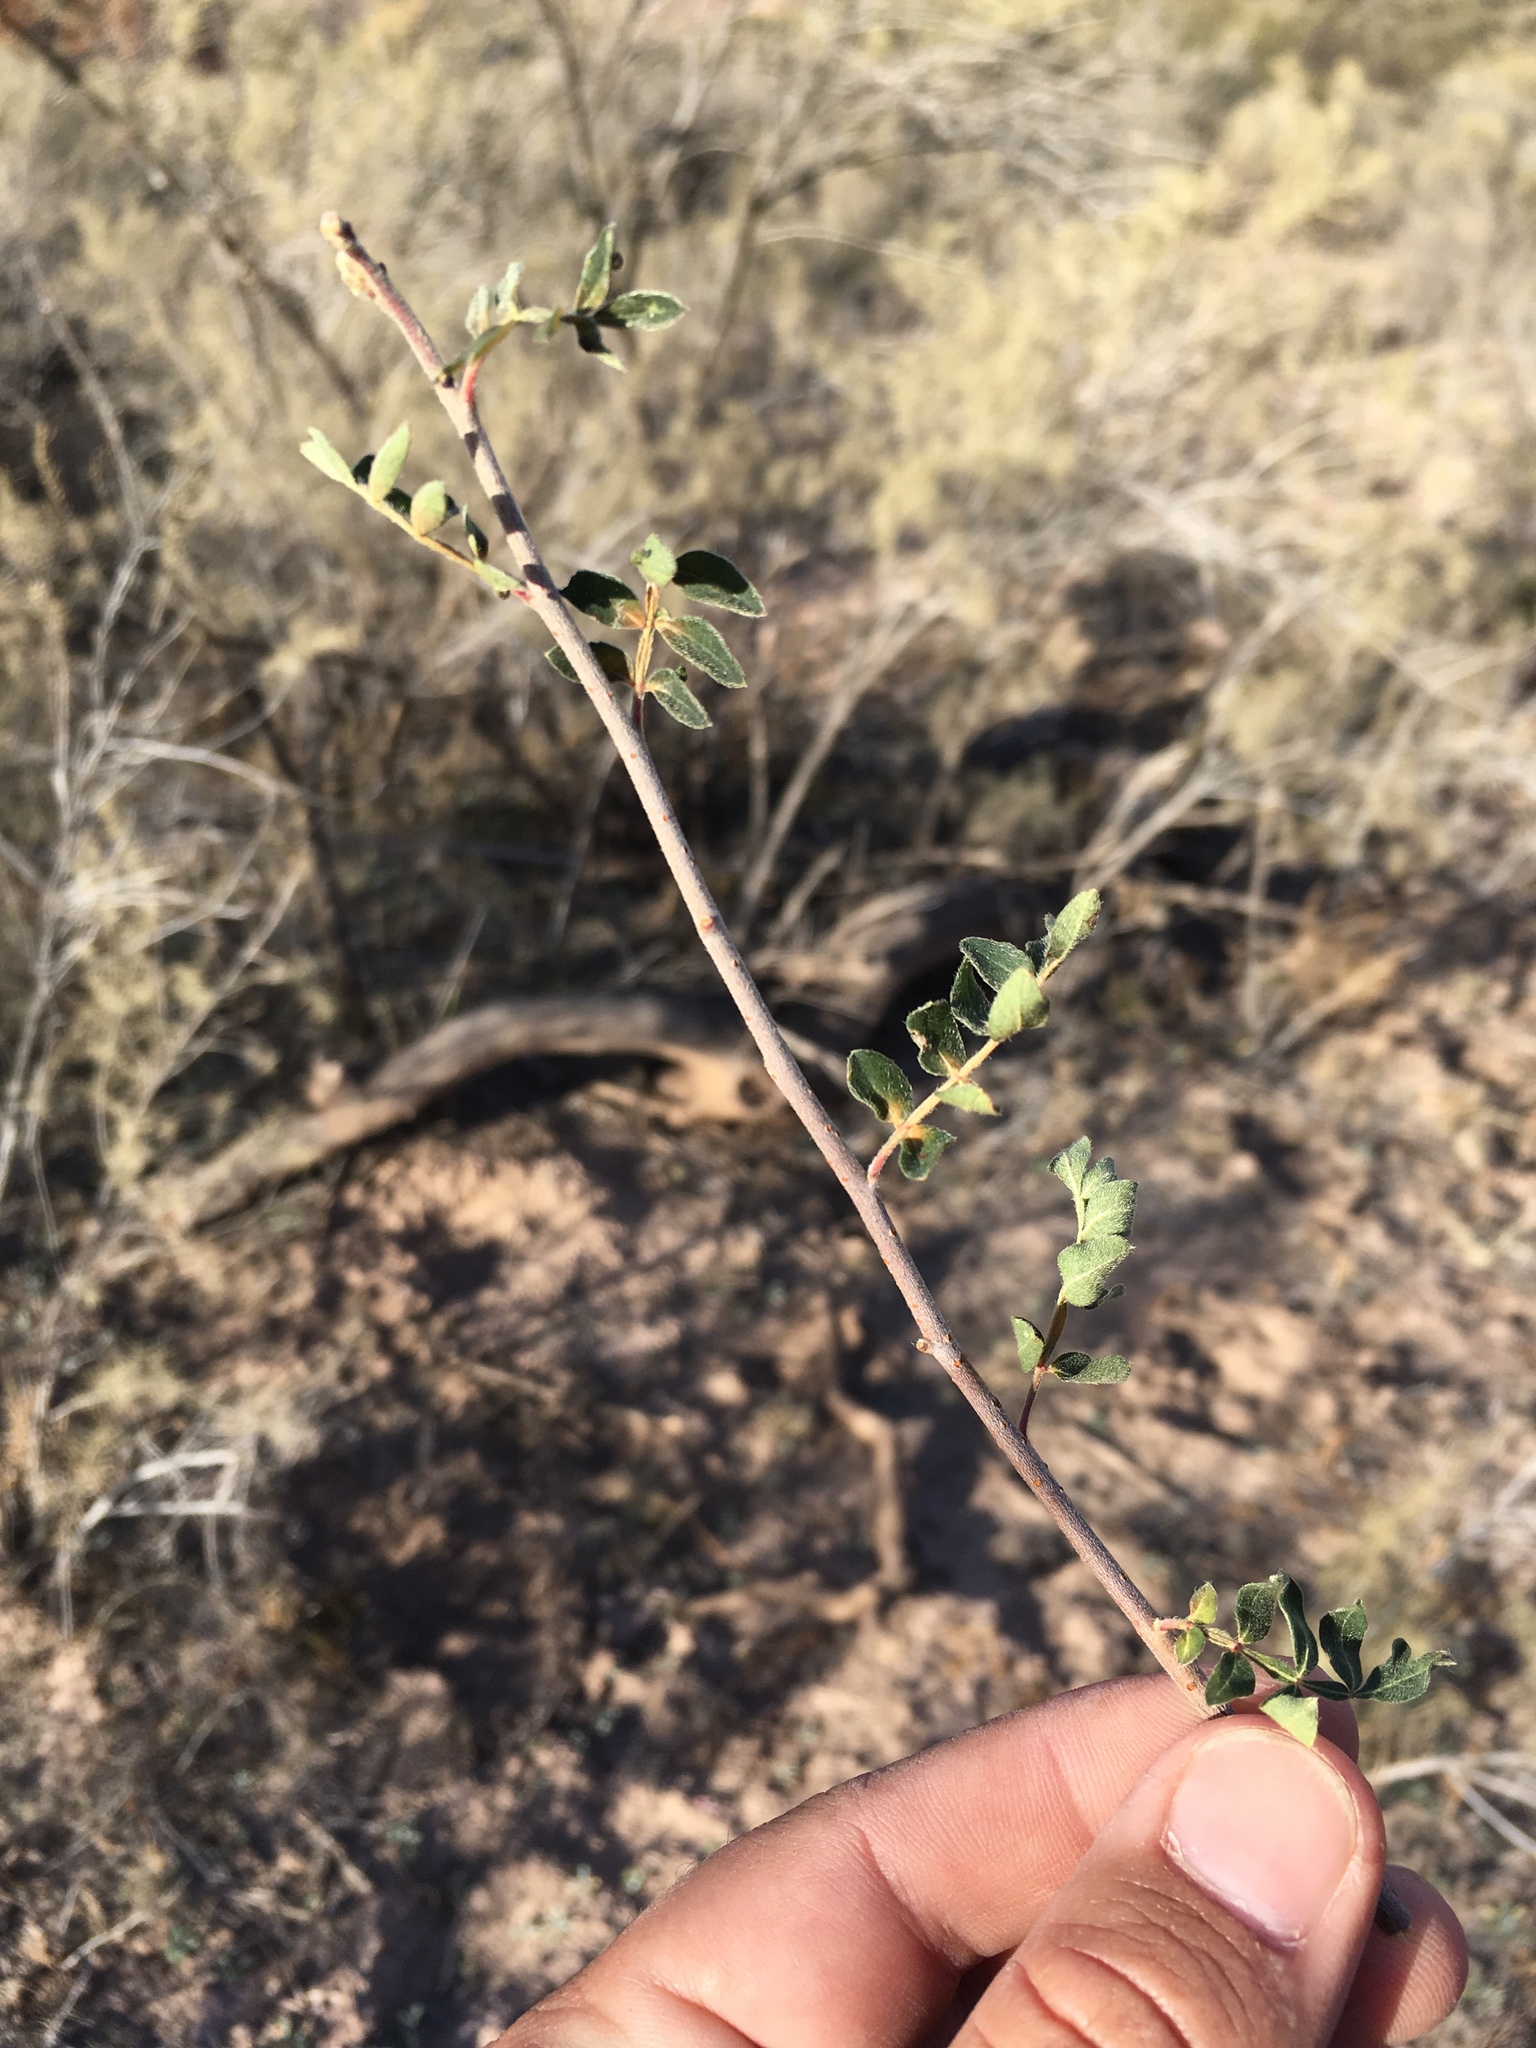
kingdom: Plantae
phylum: Tracheophyta
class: Magnoliopsida
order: Sapindales
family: Anacardiaceae
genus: Rhus
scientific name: Rhus microphylla
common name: Desert sumac
